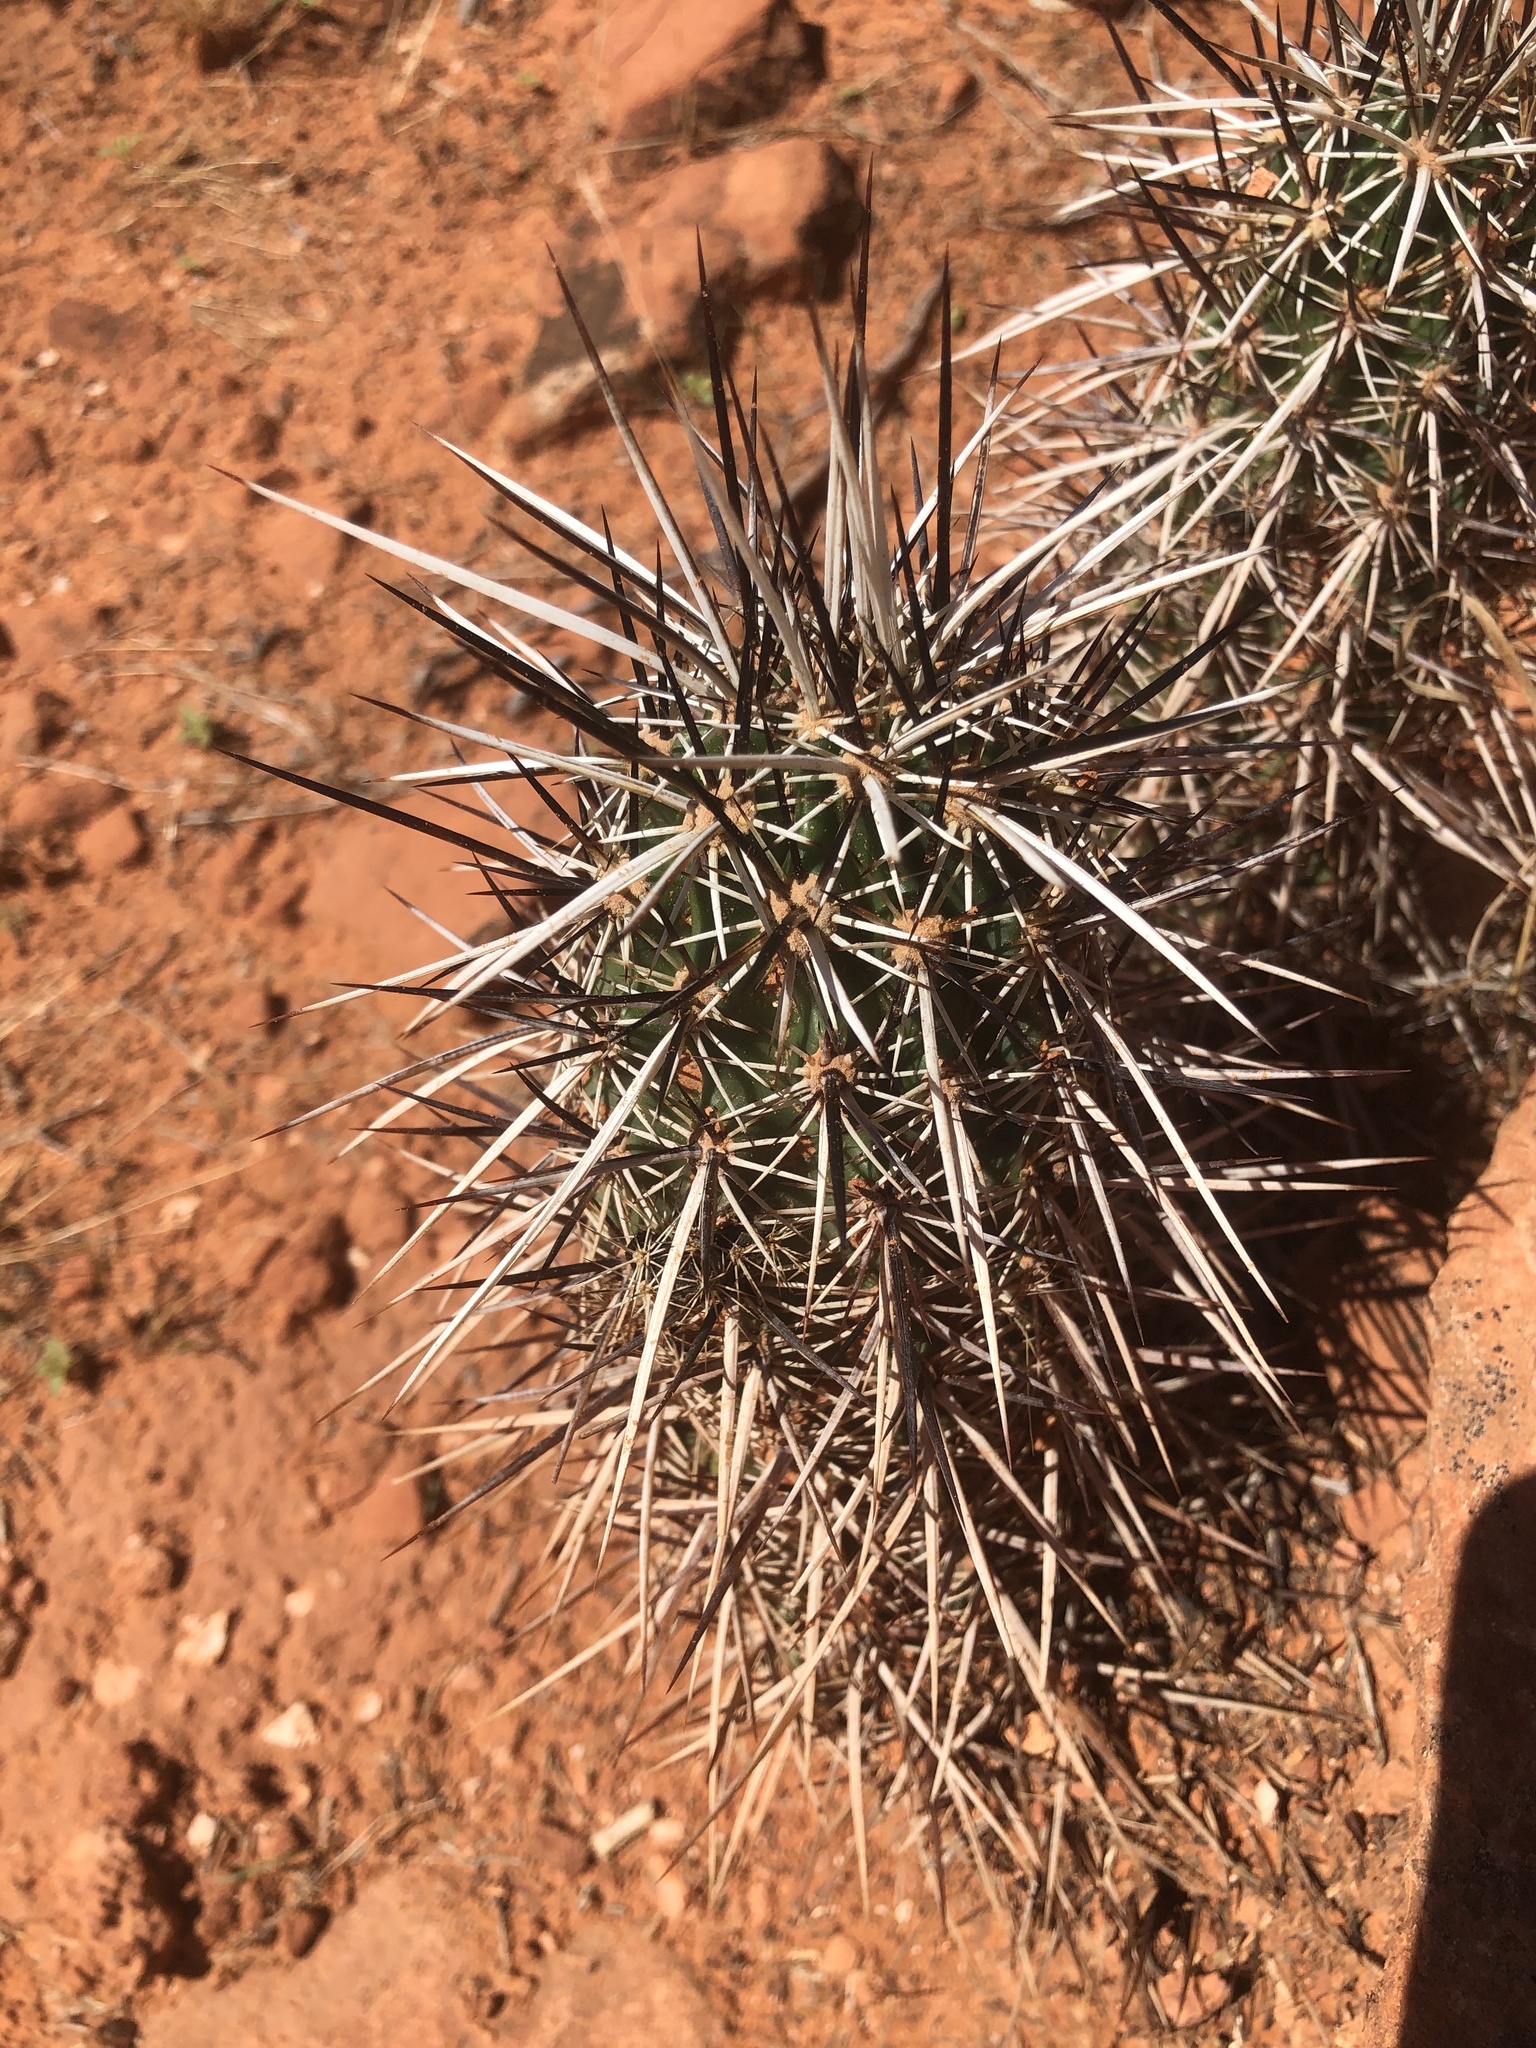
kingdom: Plantae
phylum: Tracheophyta
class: Magnoliopsida
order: Caryophyllales
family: Cactaceae
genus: Echinocereus
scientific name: Echinocereus relictus
